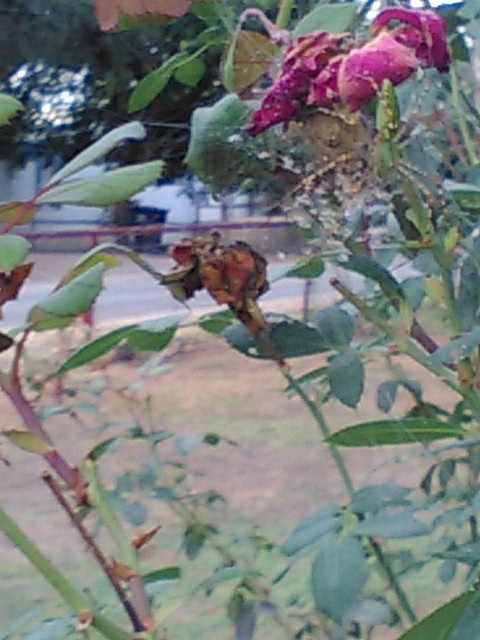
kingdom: Animalia
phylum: Arthropoda
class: Arachnida
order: Araneae
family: Oxyopidae
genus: Peucetia
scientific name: Peucetia viridans
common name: Lynx spiders
